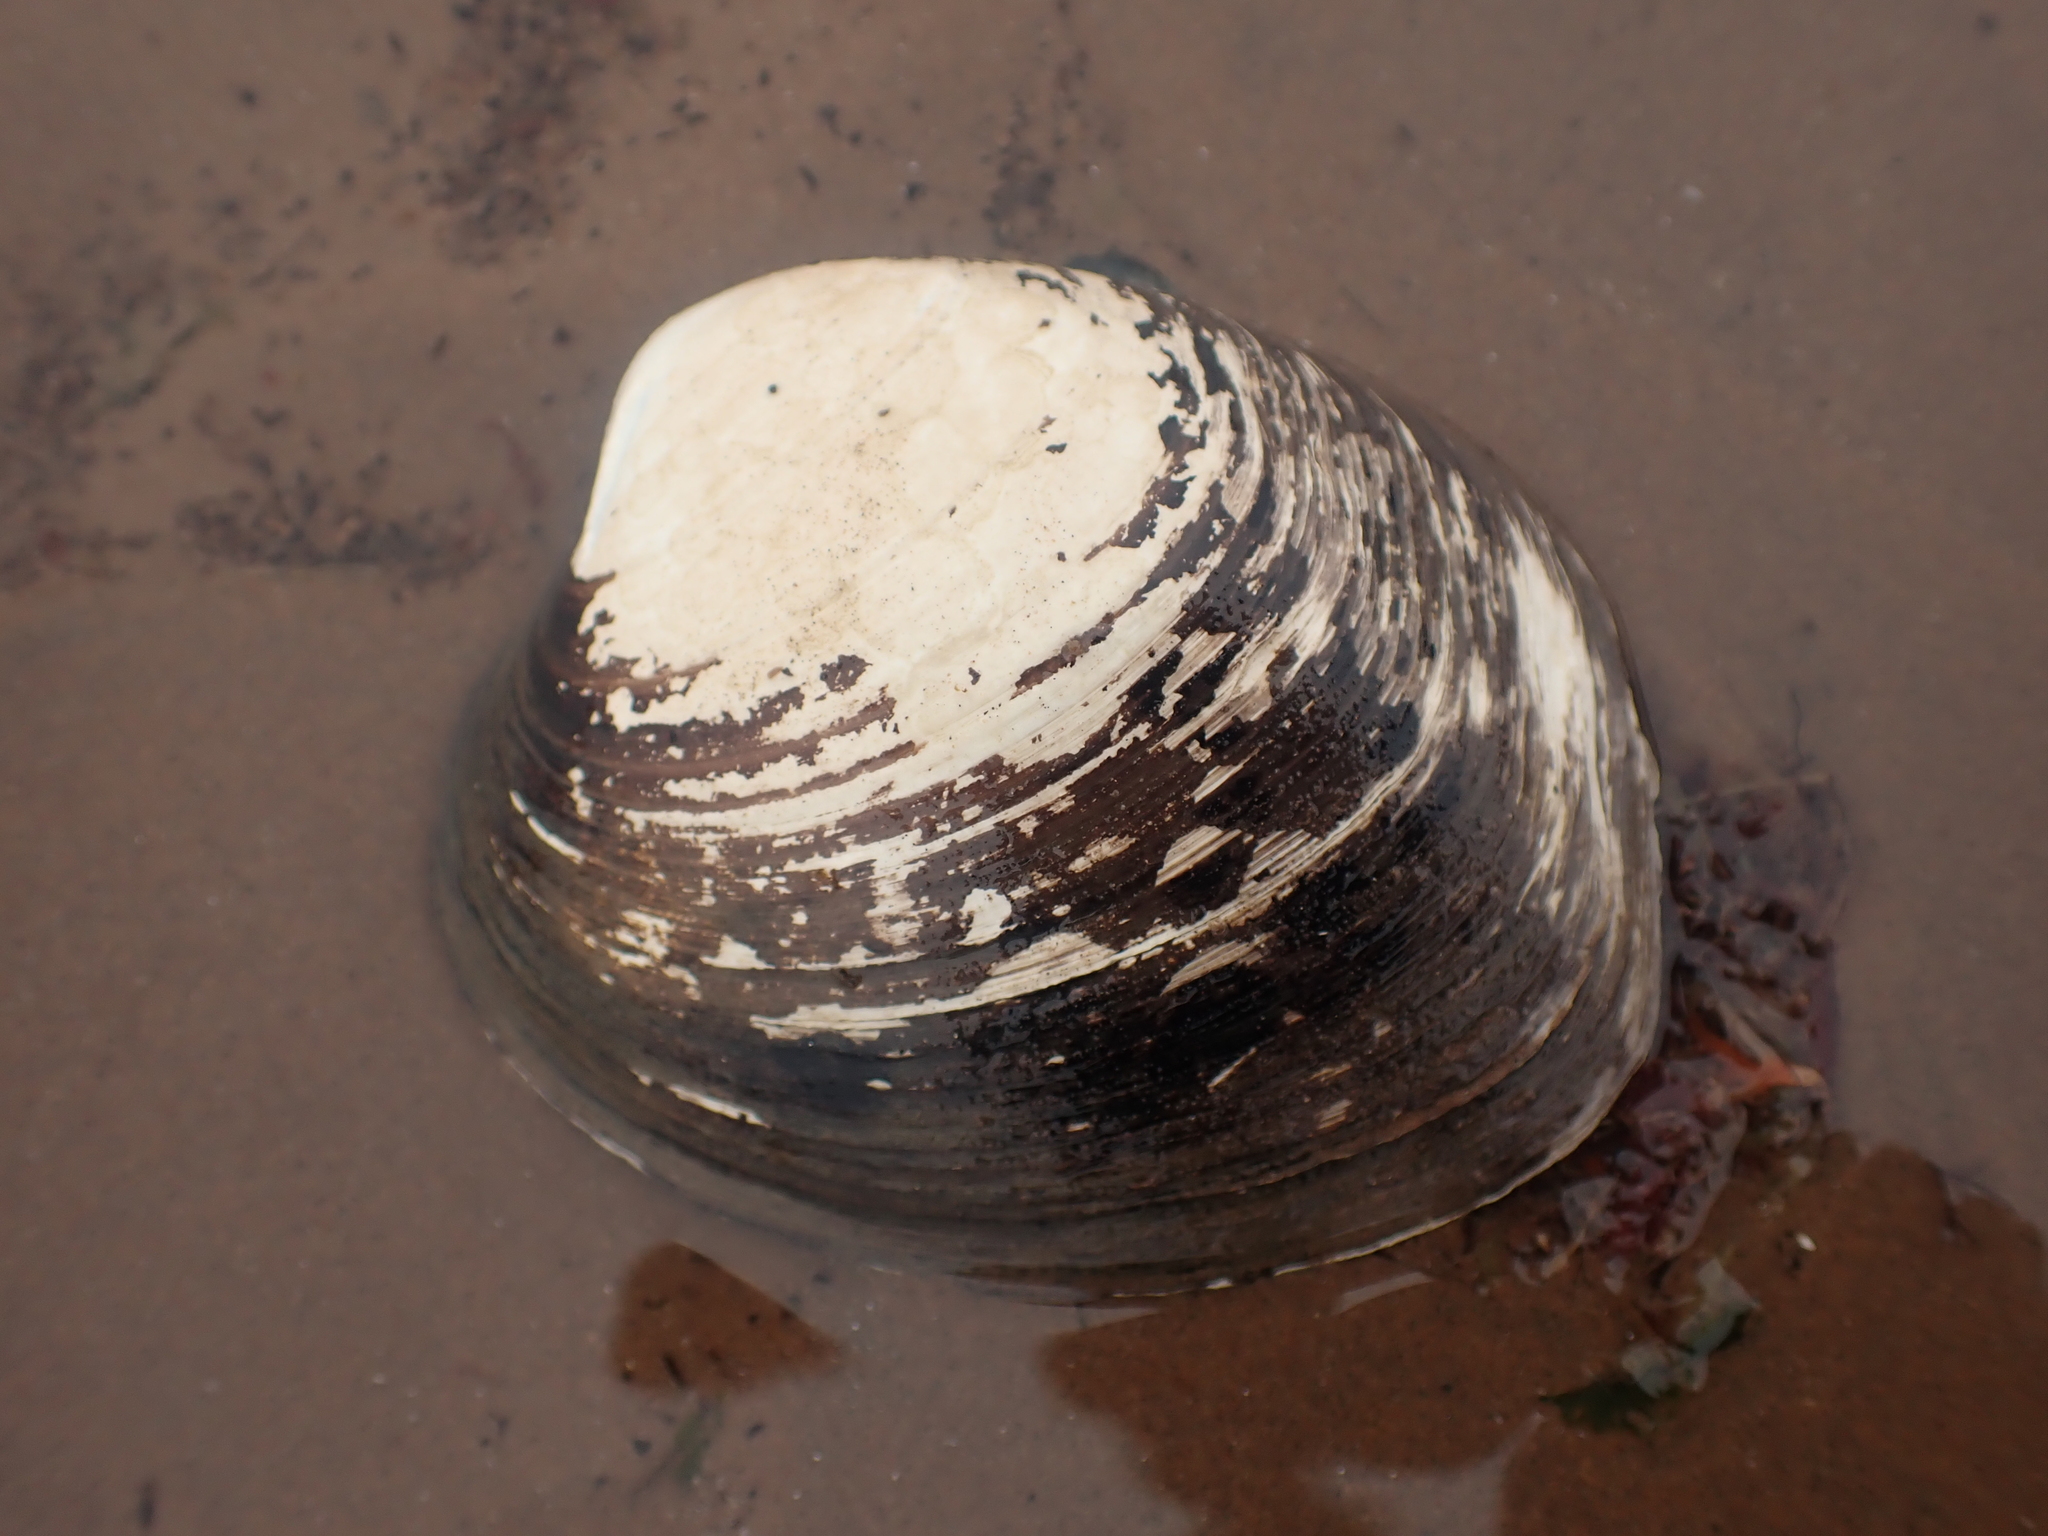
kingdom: Animalia
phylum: Mollusca
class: Bivalvia
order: Venerida
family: Arcticidae
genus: Arctica
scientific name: Arctica islandica
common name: Icelandic cyprine
